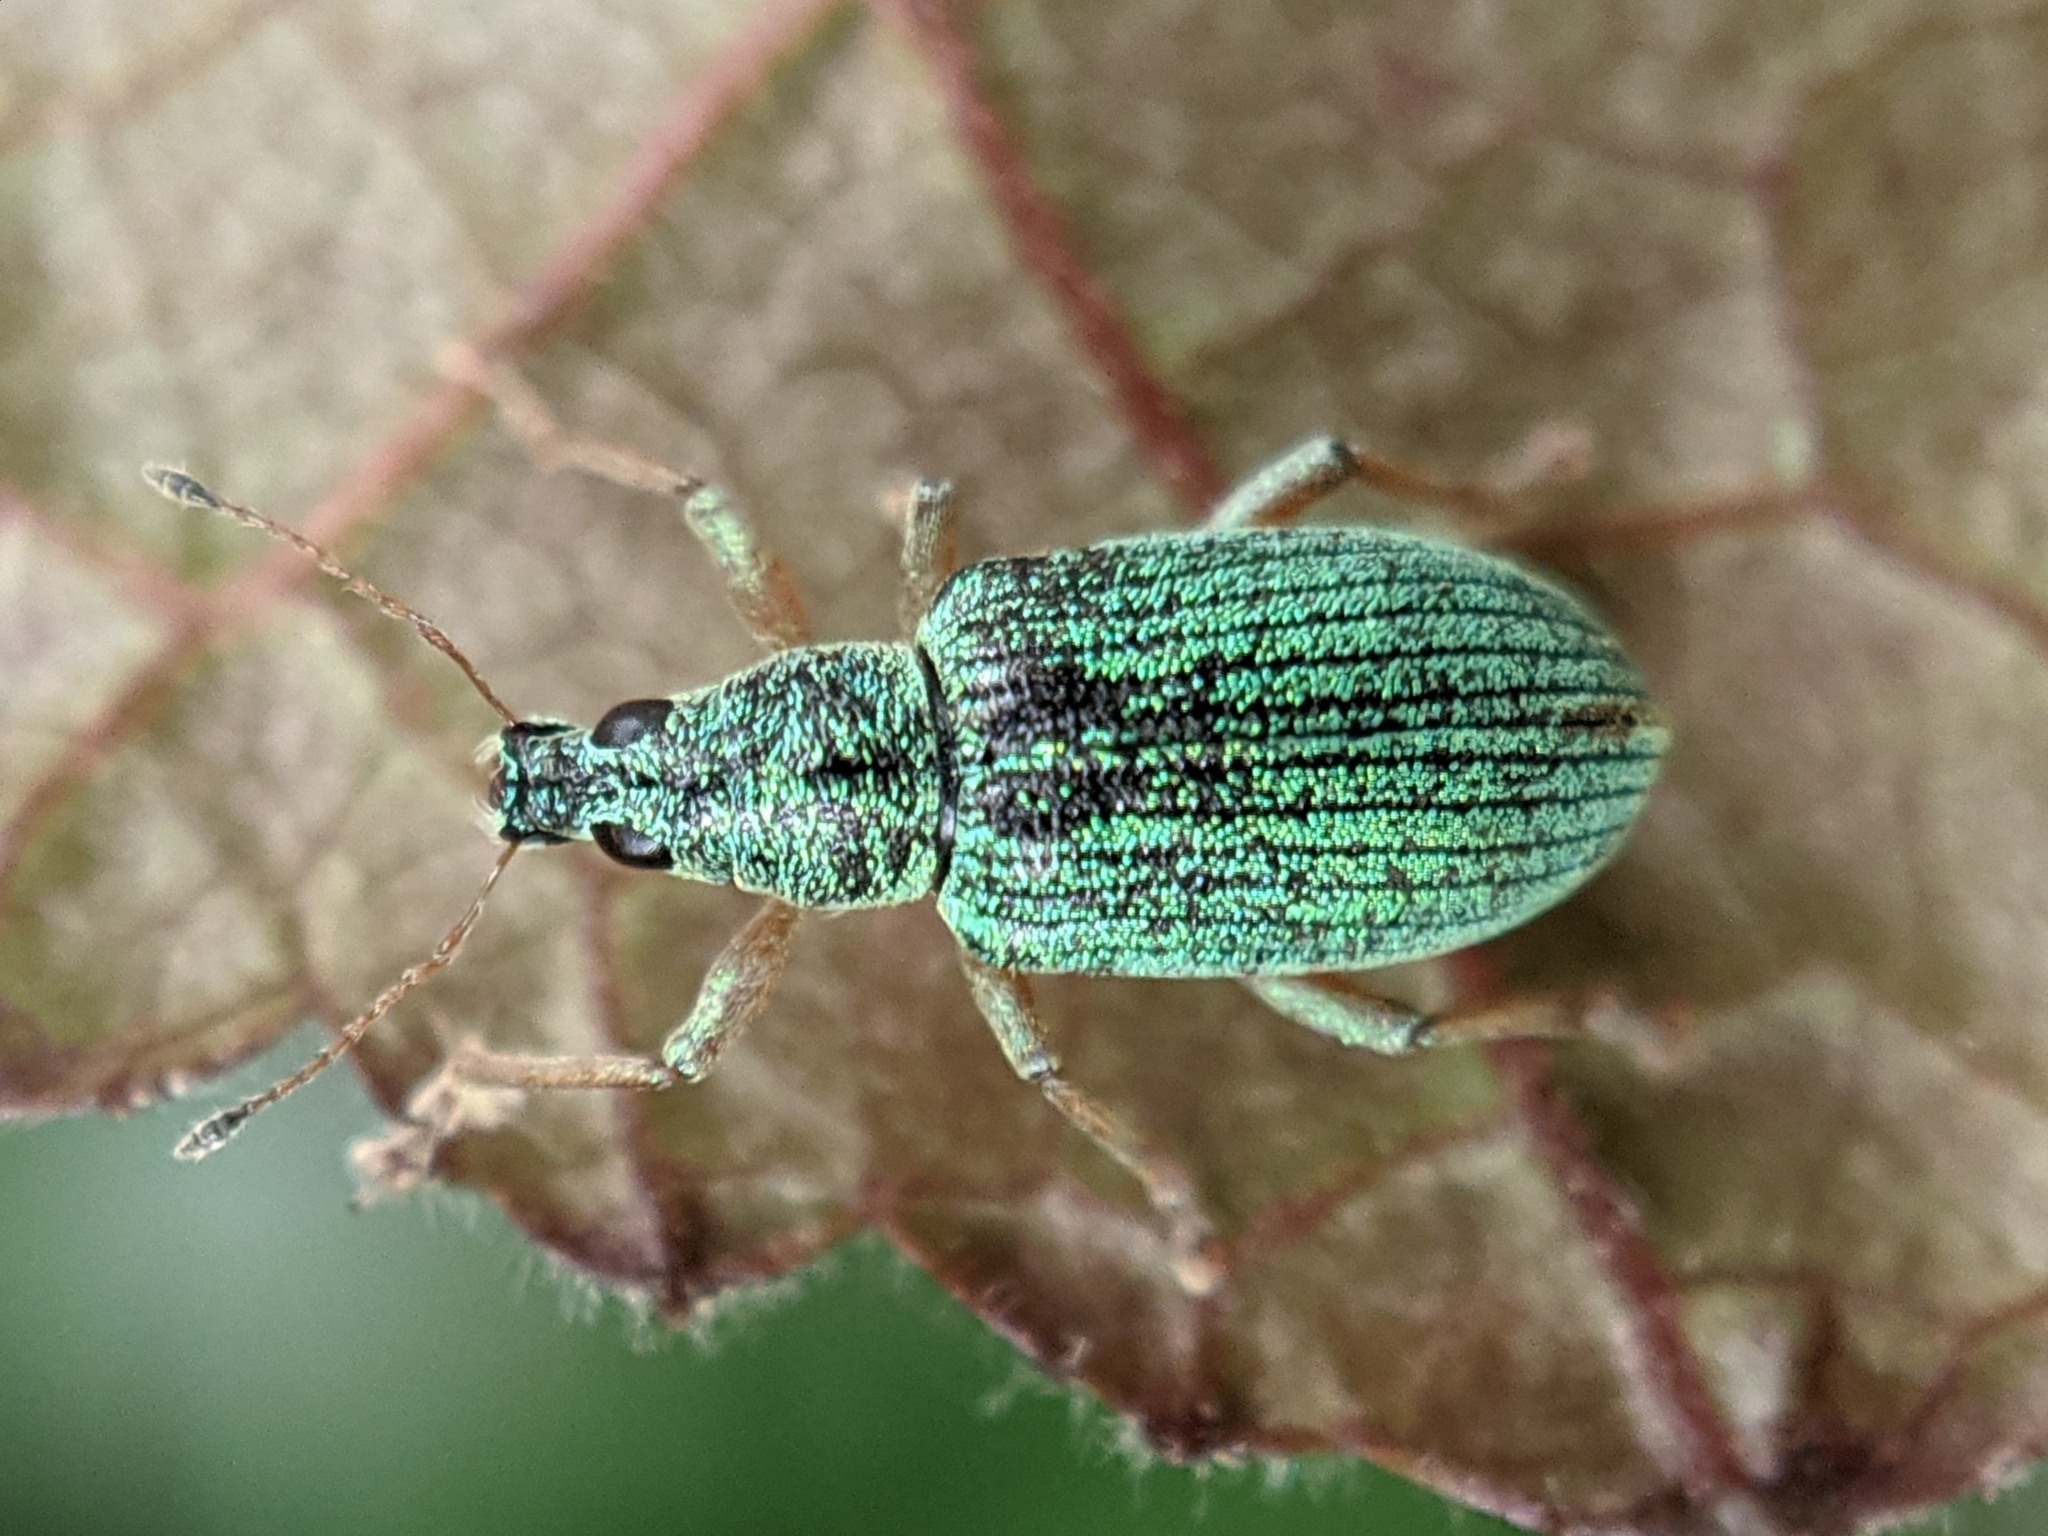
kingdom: Animalia
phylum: Arthropoda
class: Insecta
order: Coleoptera
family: Curculionidae
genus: Polydrusus
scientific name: Polydrusus formosus
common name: Weevil
